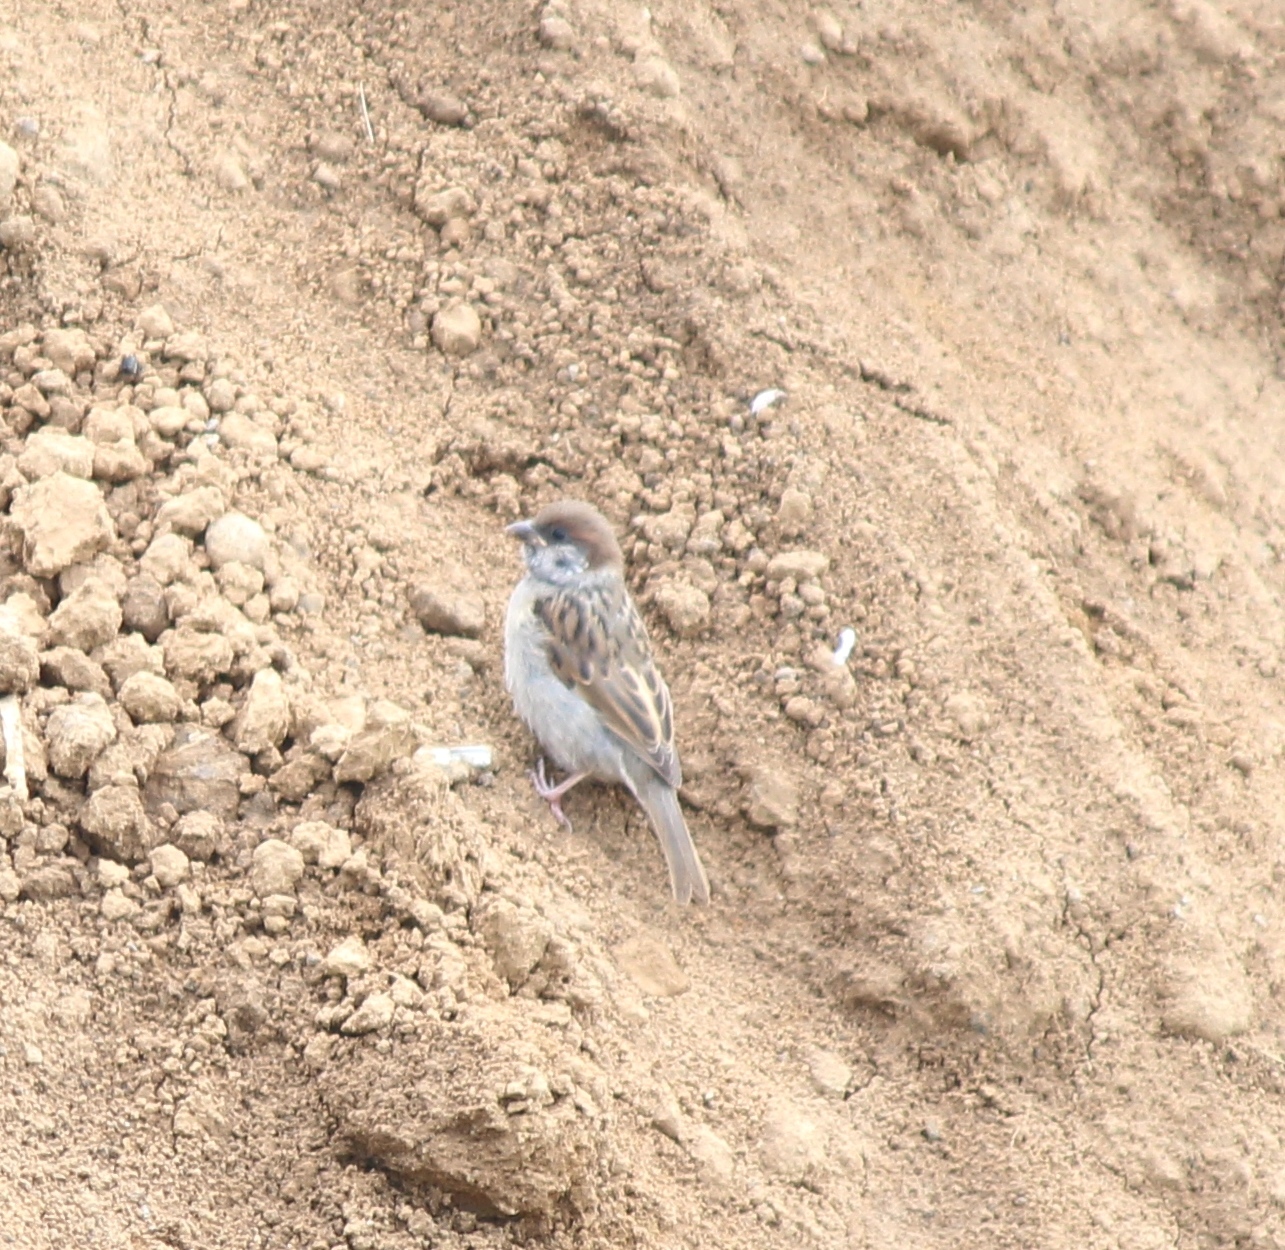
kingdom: Animalia
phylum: Chordata
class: Aves
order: Passeriformes
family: Passeridae
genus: Passer
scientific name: Passer domesticus
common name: House sparrow
